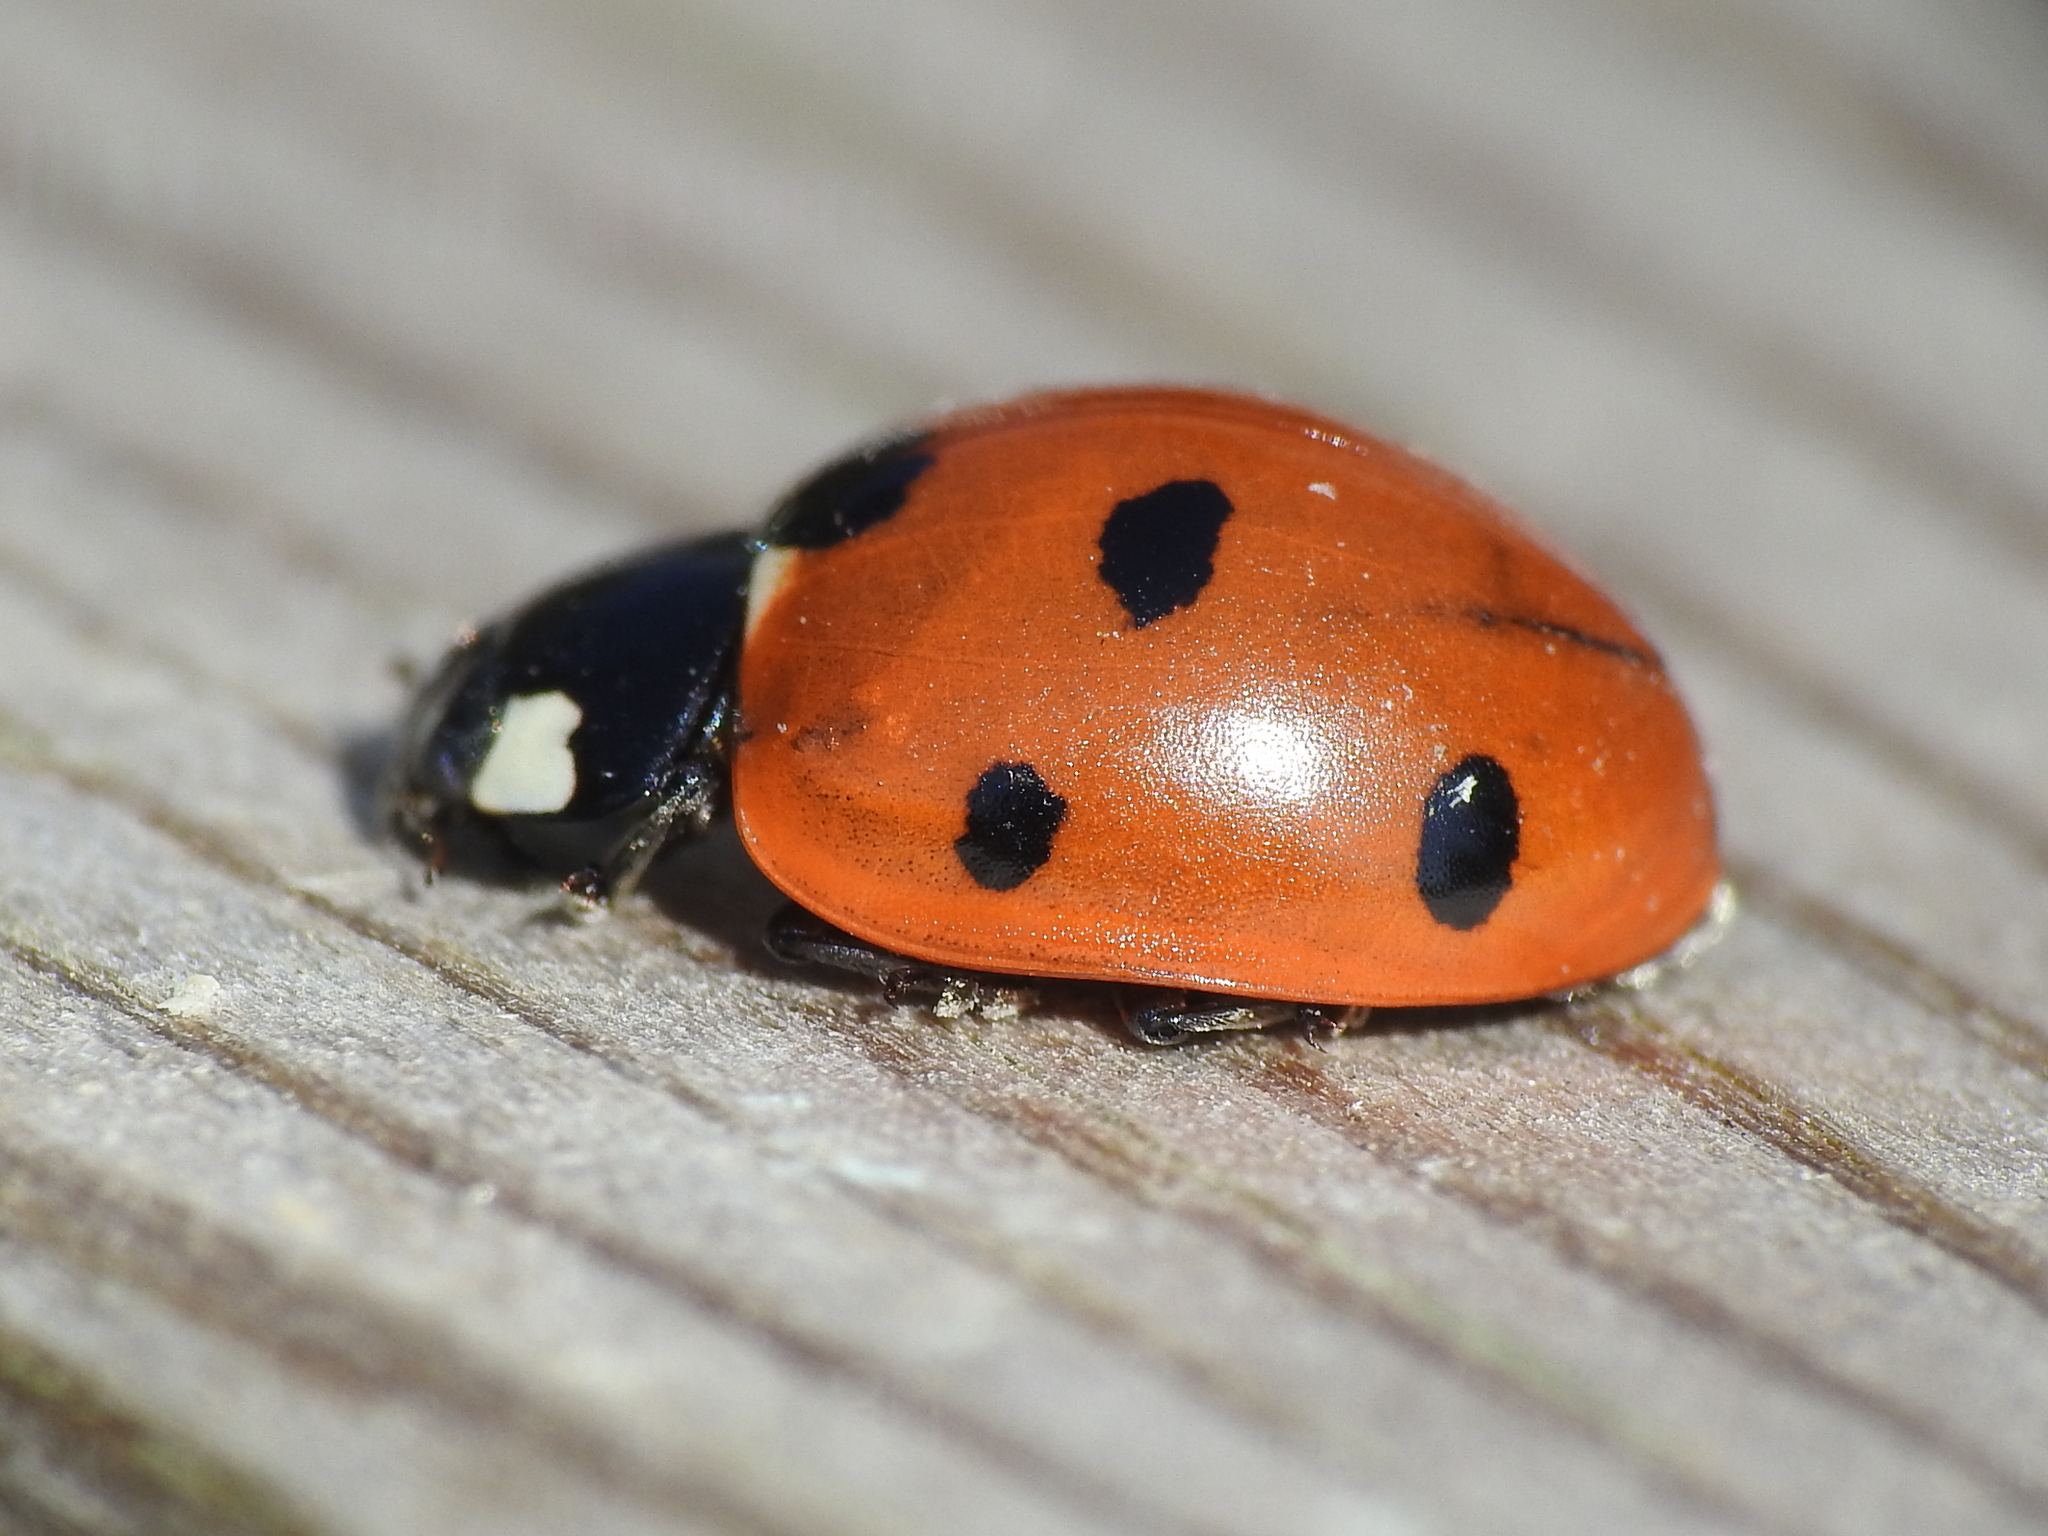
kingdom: Animalia
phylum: Arthropoda
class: Insecta
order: Coleoptera
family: Coccinellidae
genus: Coccinella
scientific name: Coccinella septempunctata
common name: Sevenspotted lady beetle
